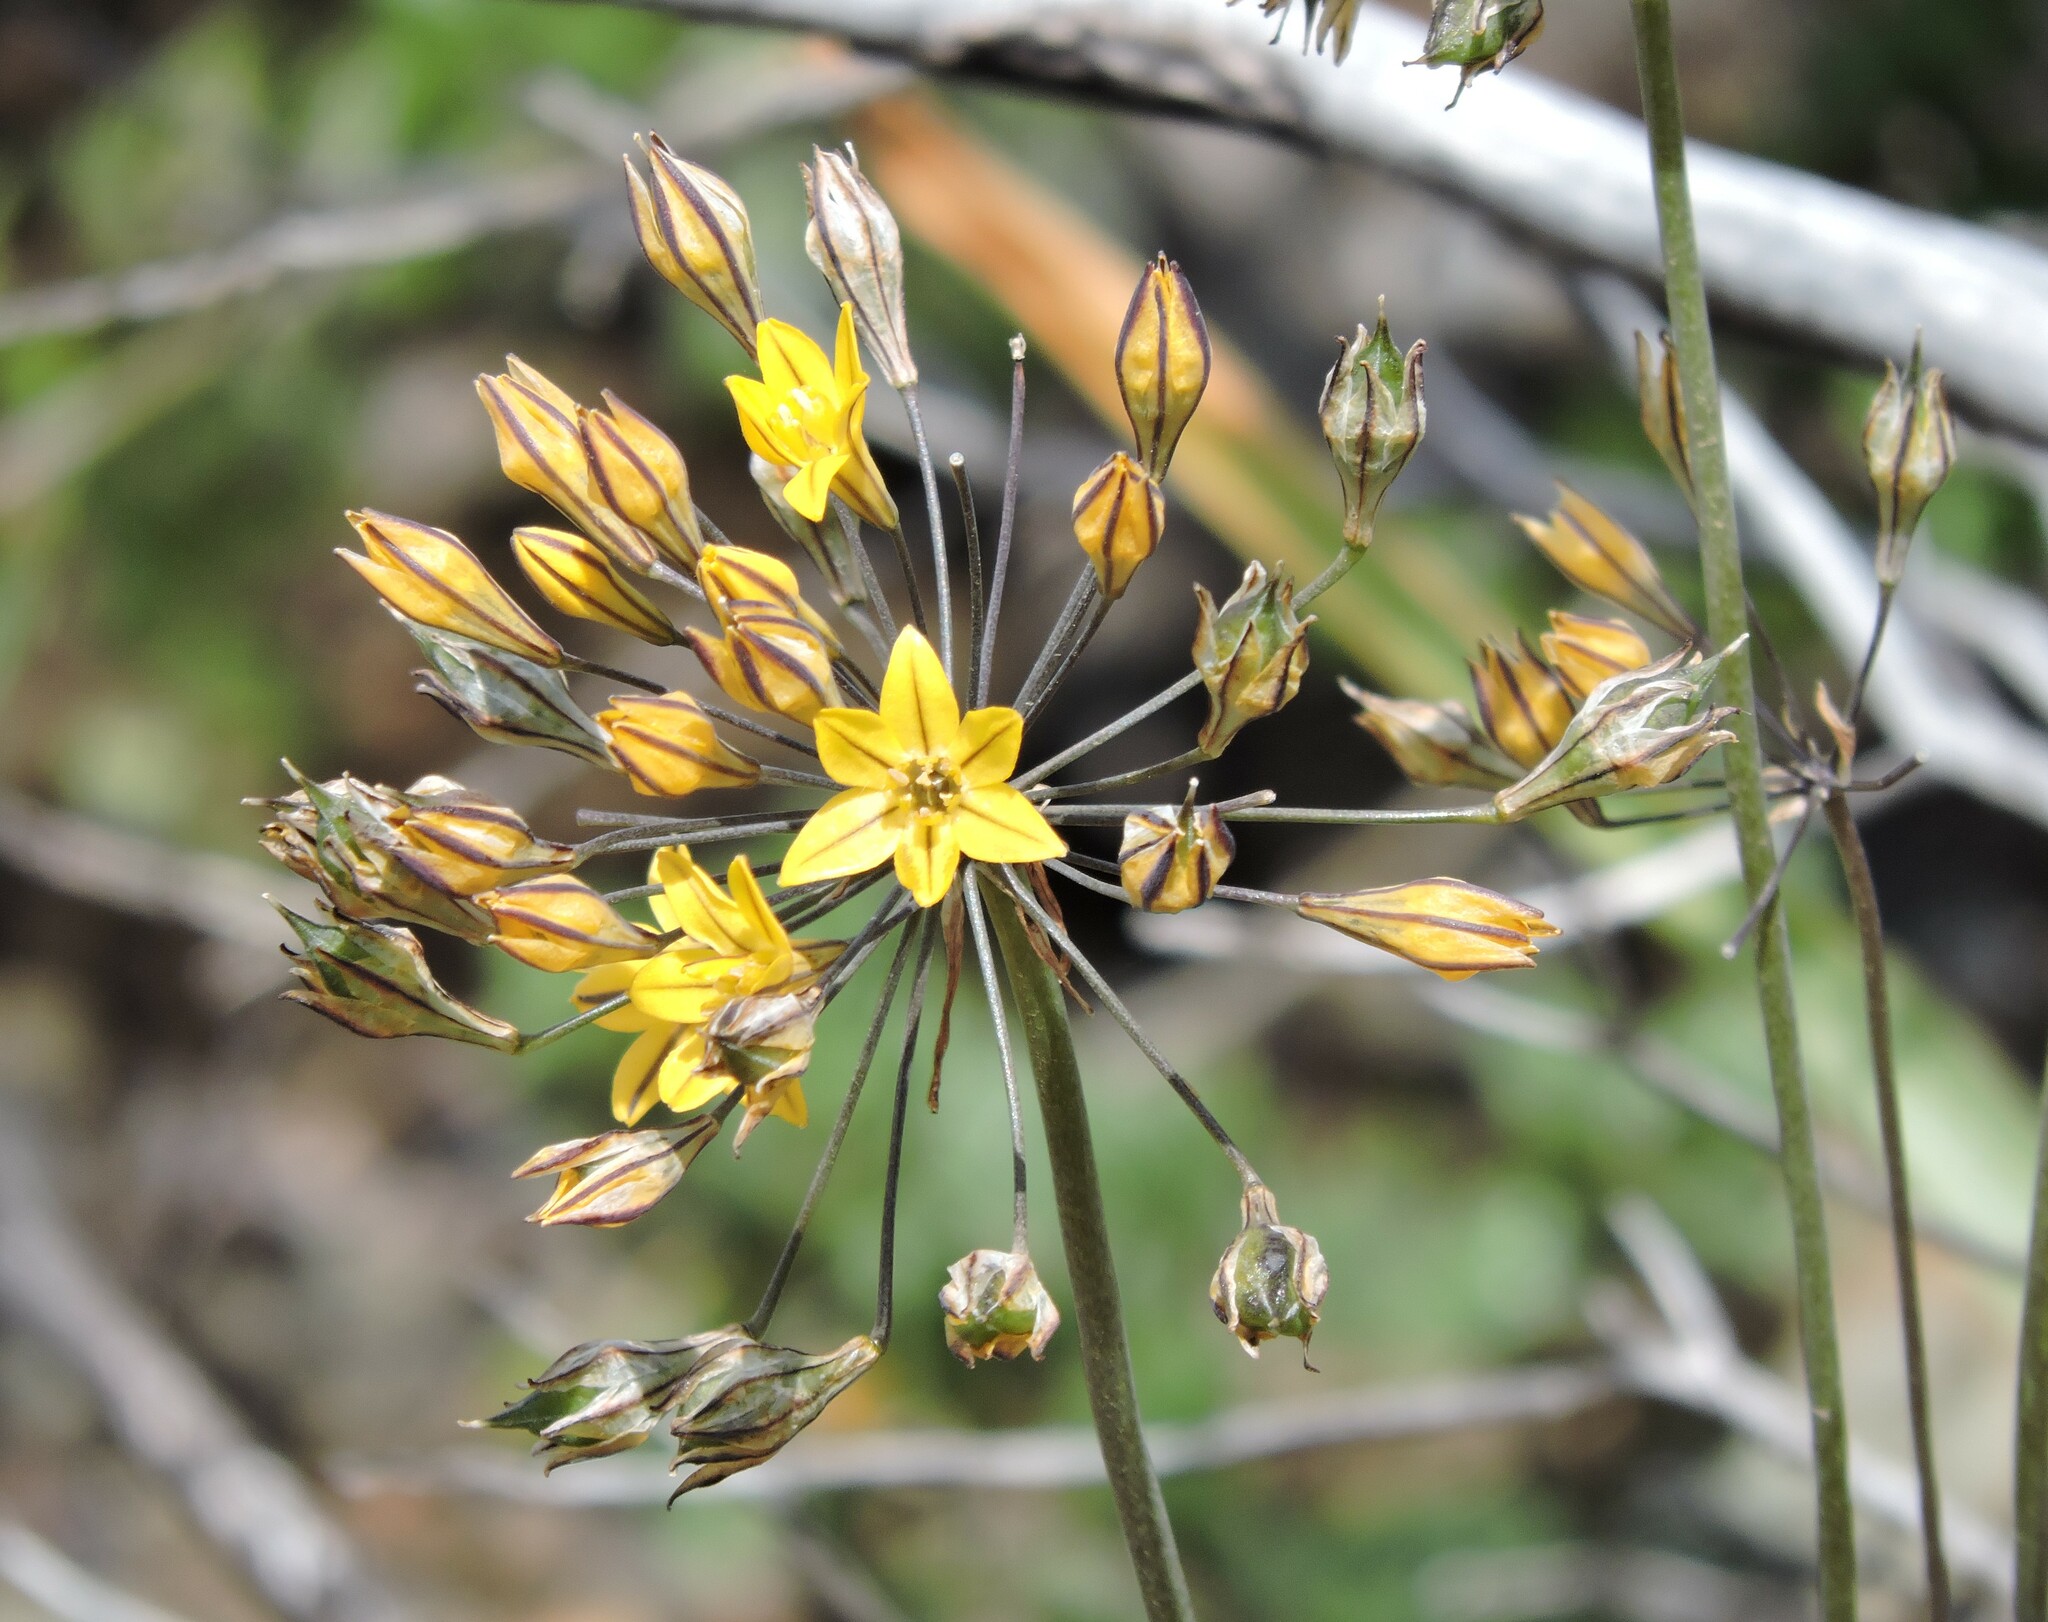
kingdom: Plantae
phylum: Tracheophyta
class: Liliopsida
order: Asparagales
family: Asparagaceae
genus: Triteleia
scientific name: Triteleia lugens
